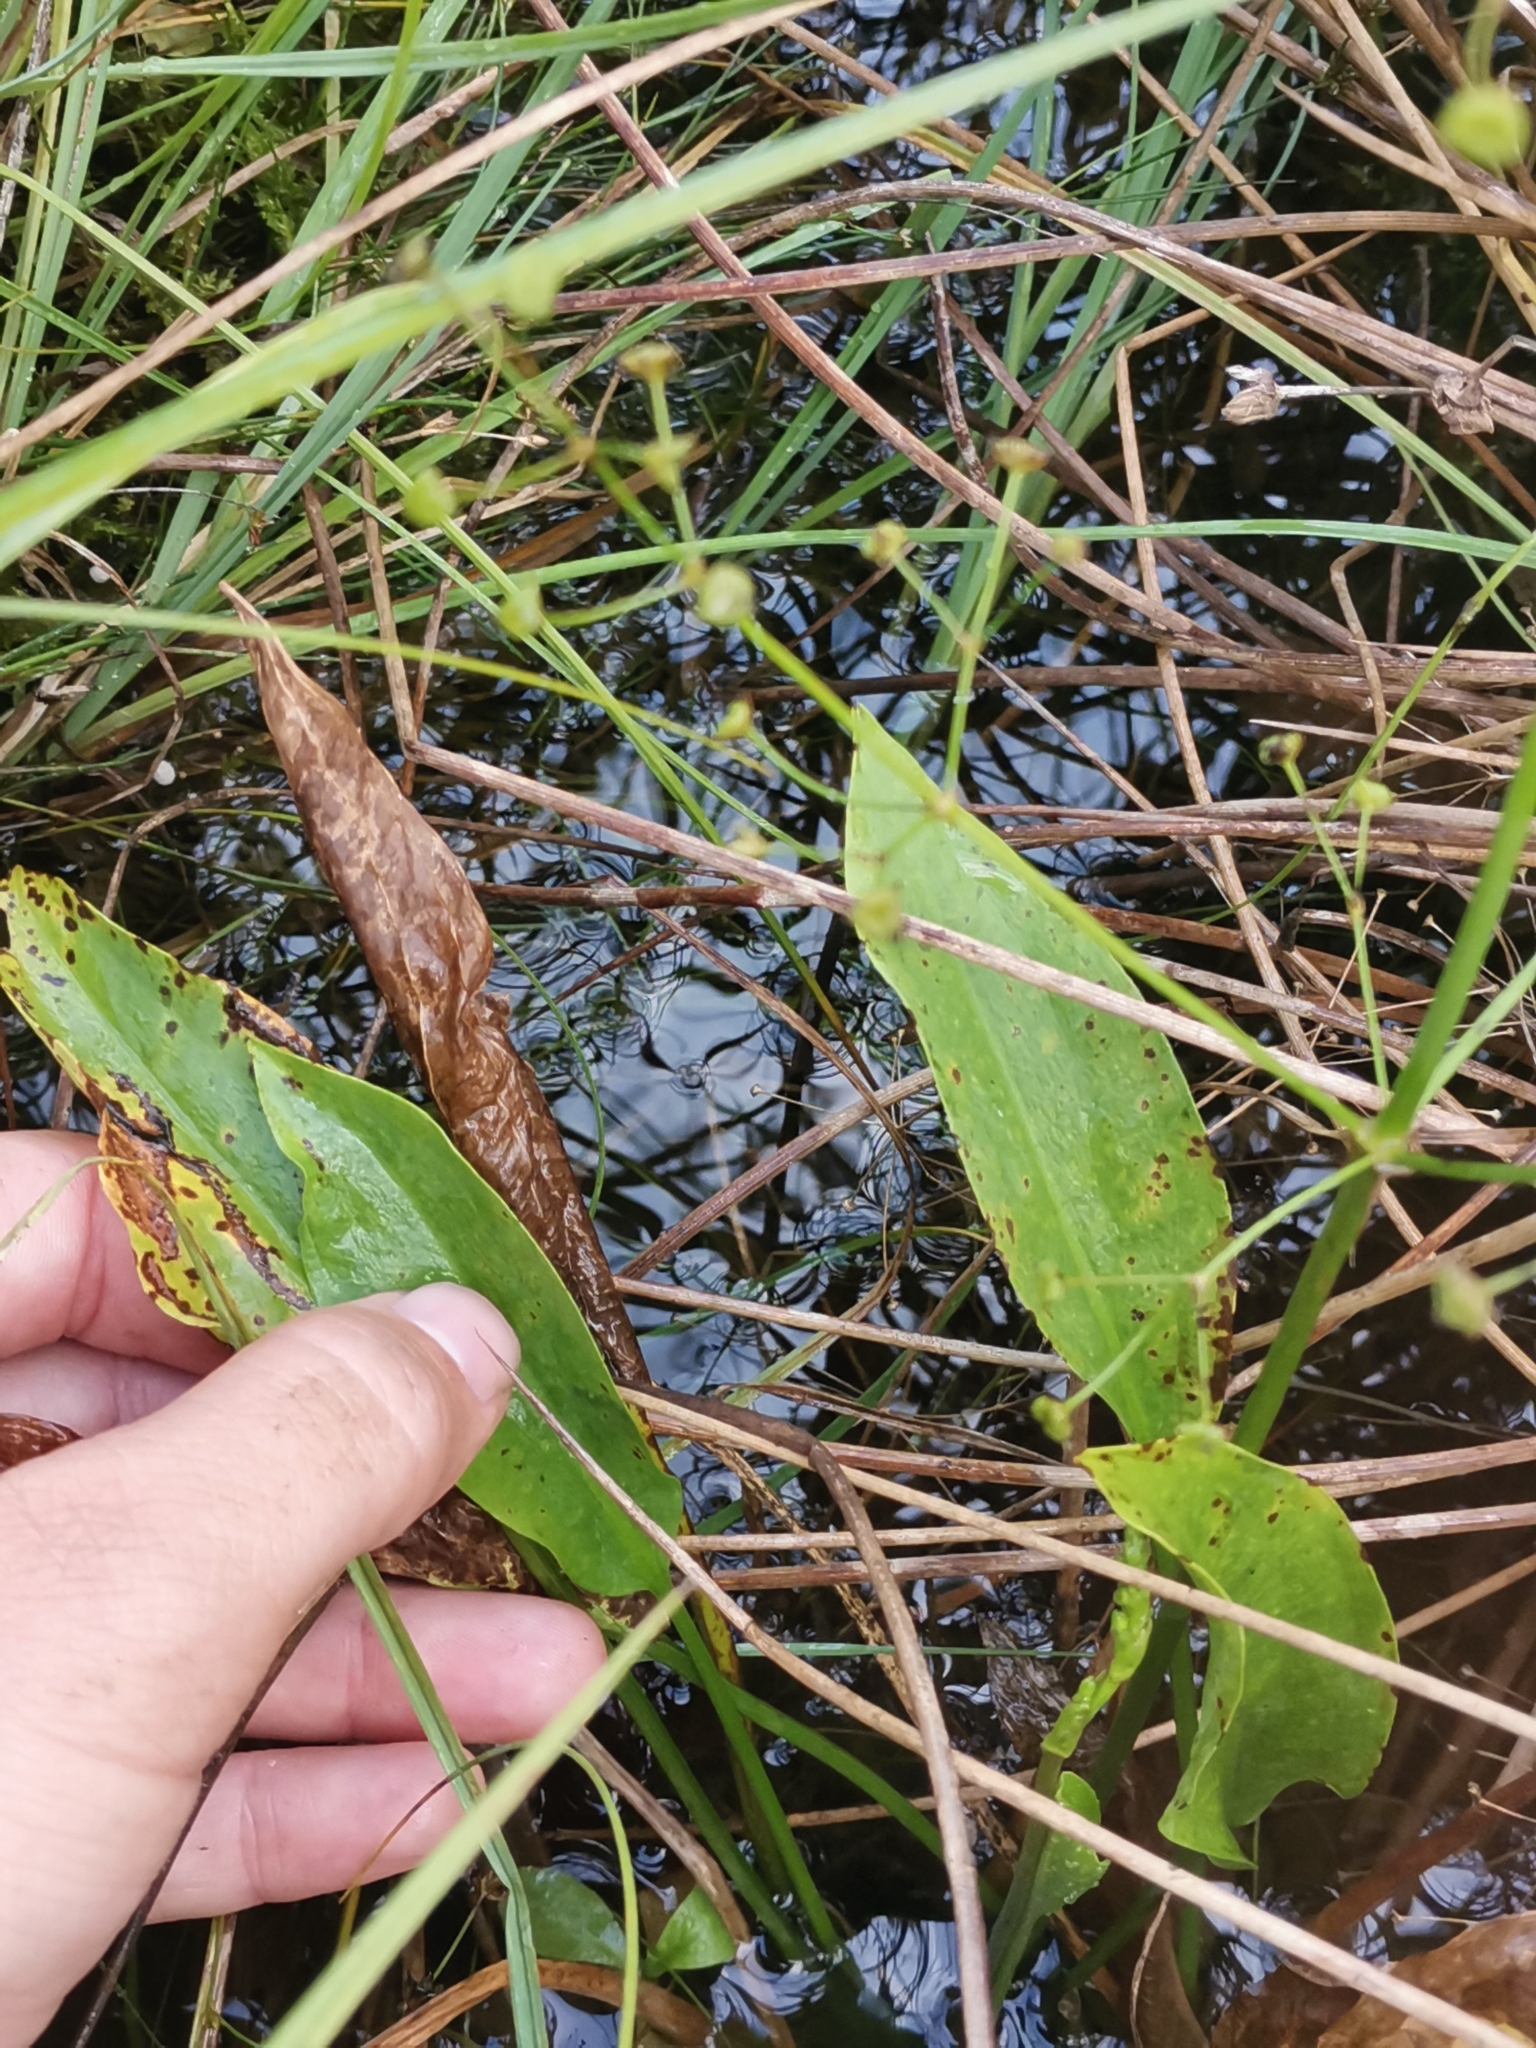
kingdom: Plantae
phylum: Tracheophyta
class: Liliopsida
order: Alismatales
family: Alismataceae
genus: Alisma
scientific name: Alisma plantago-aquatica
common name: Water-plantain
